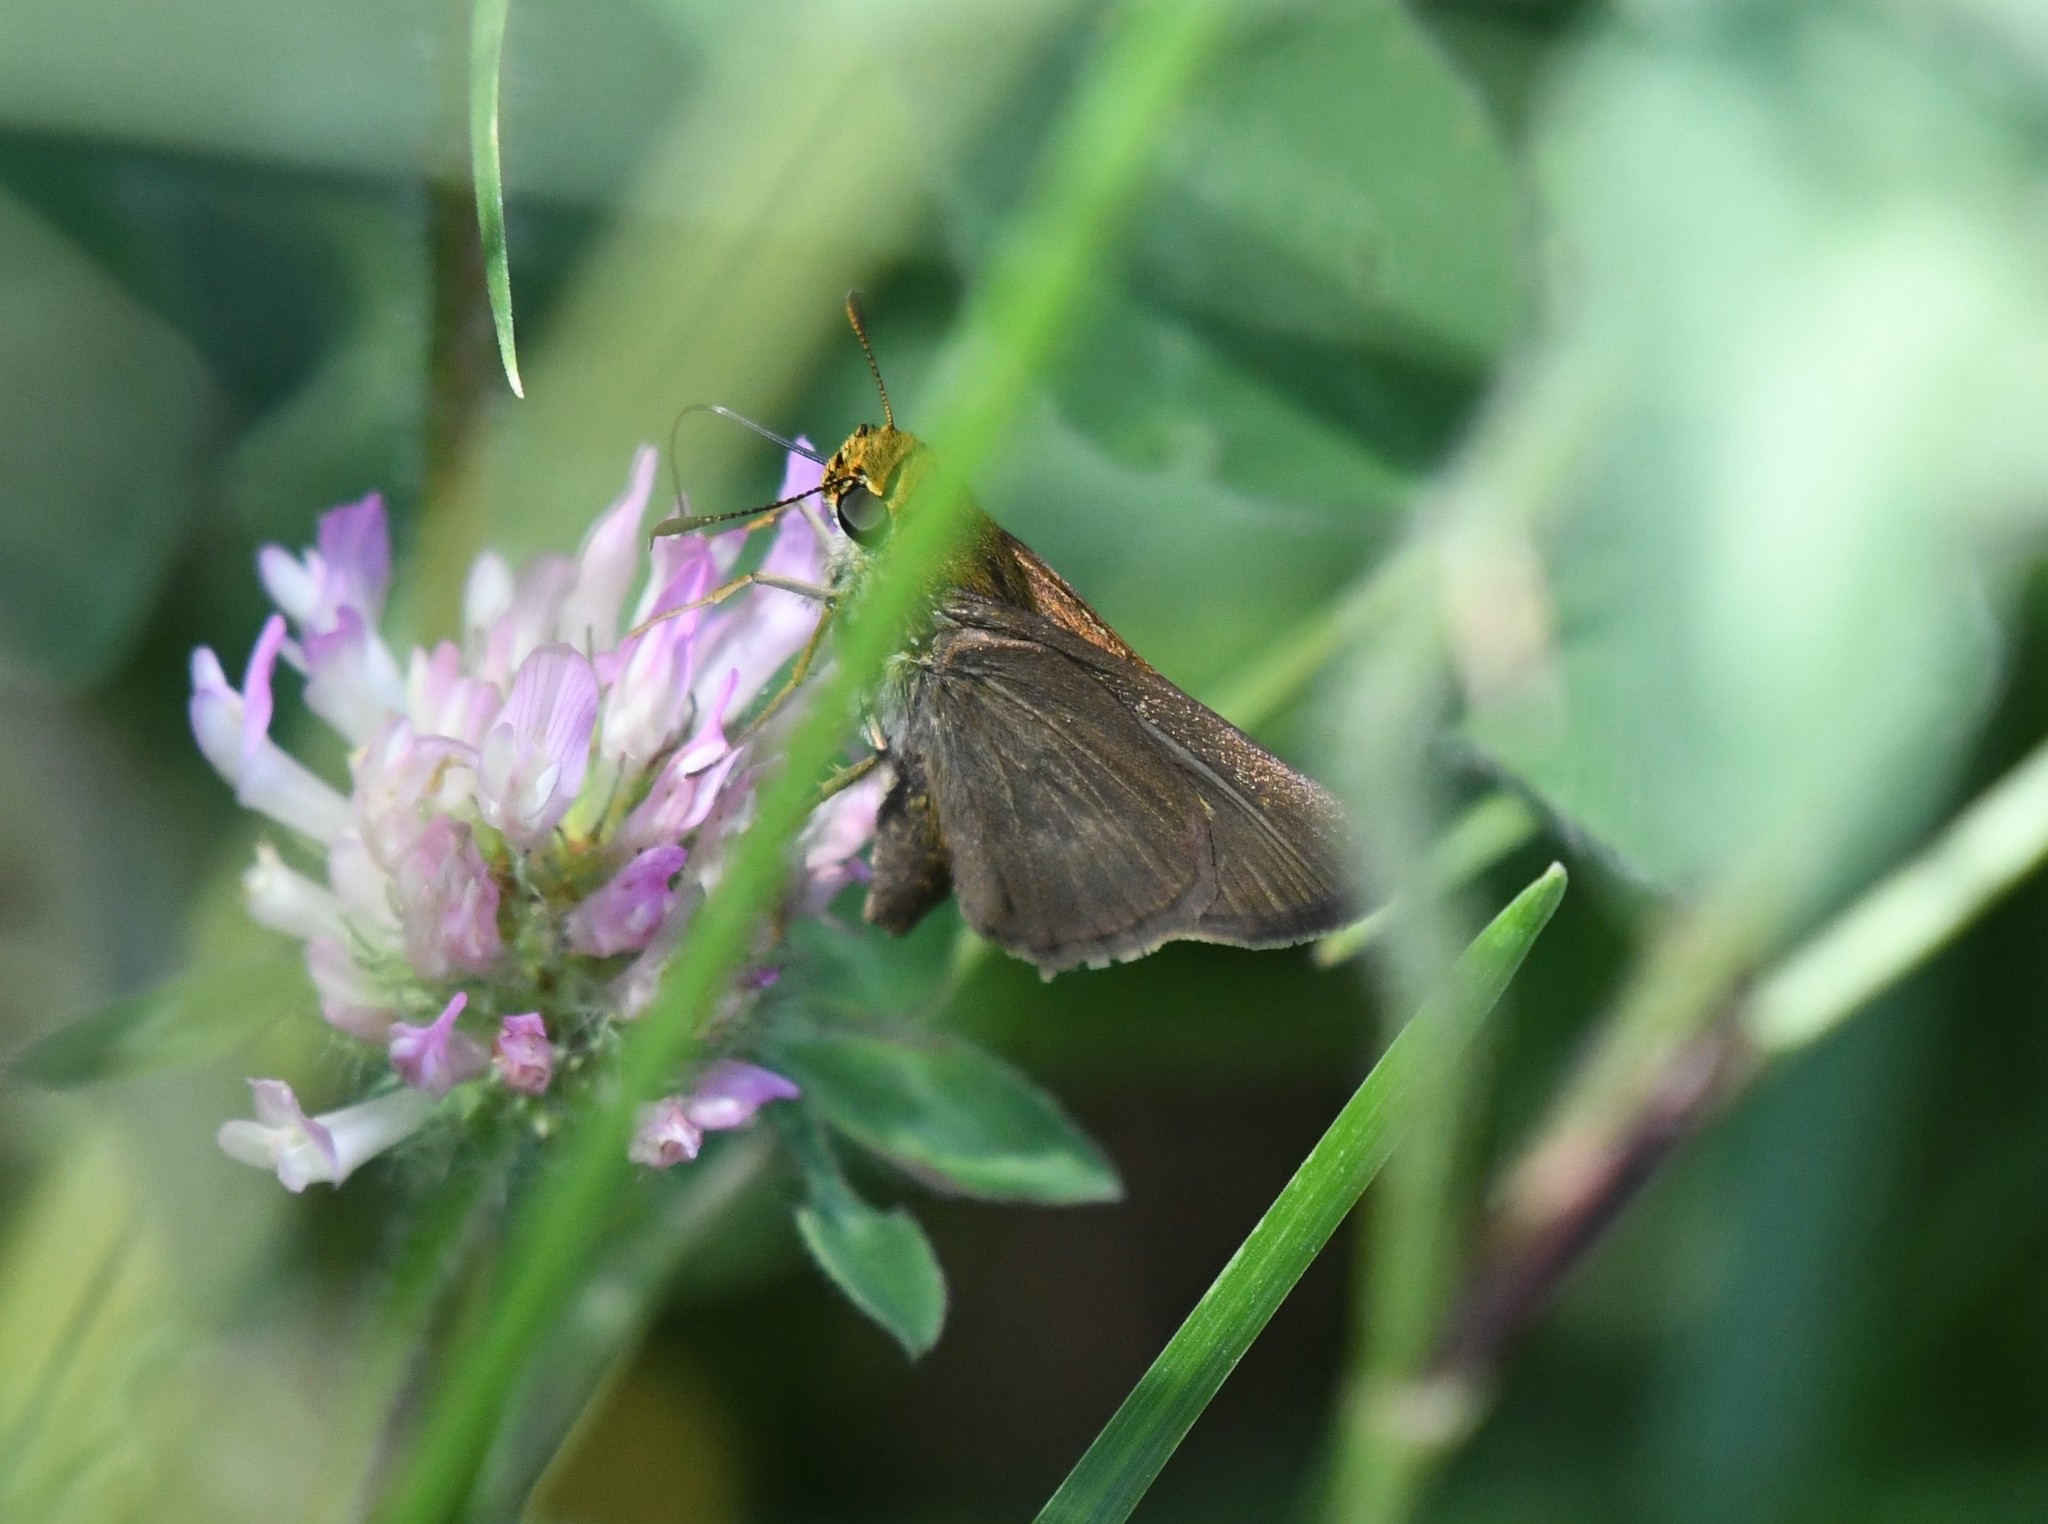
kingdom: Animalia
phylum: Arthropoda
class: Insecta
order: Lepidoptera
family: Hesperiidae
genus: Euphyes
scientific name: Euphyes vestris
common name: Dun skipper
